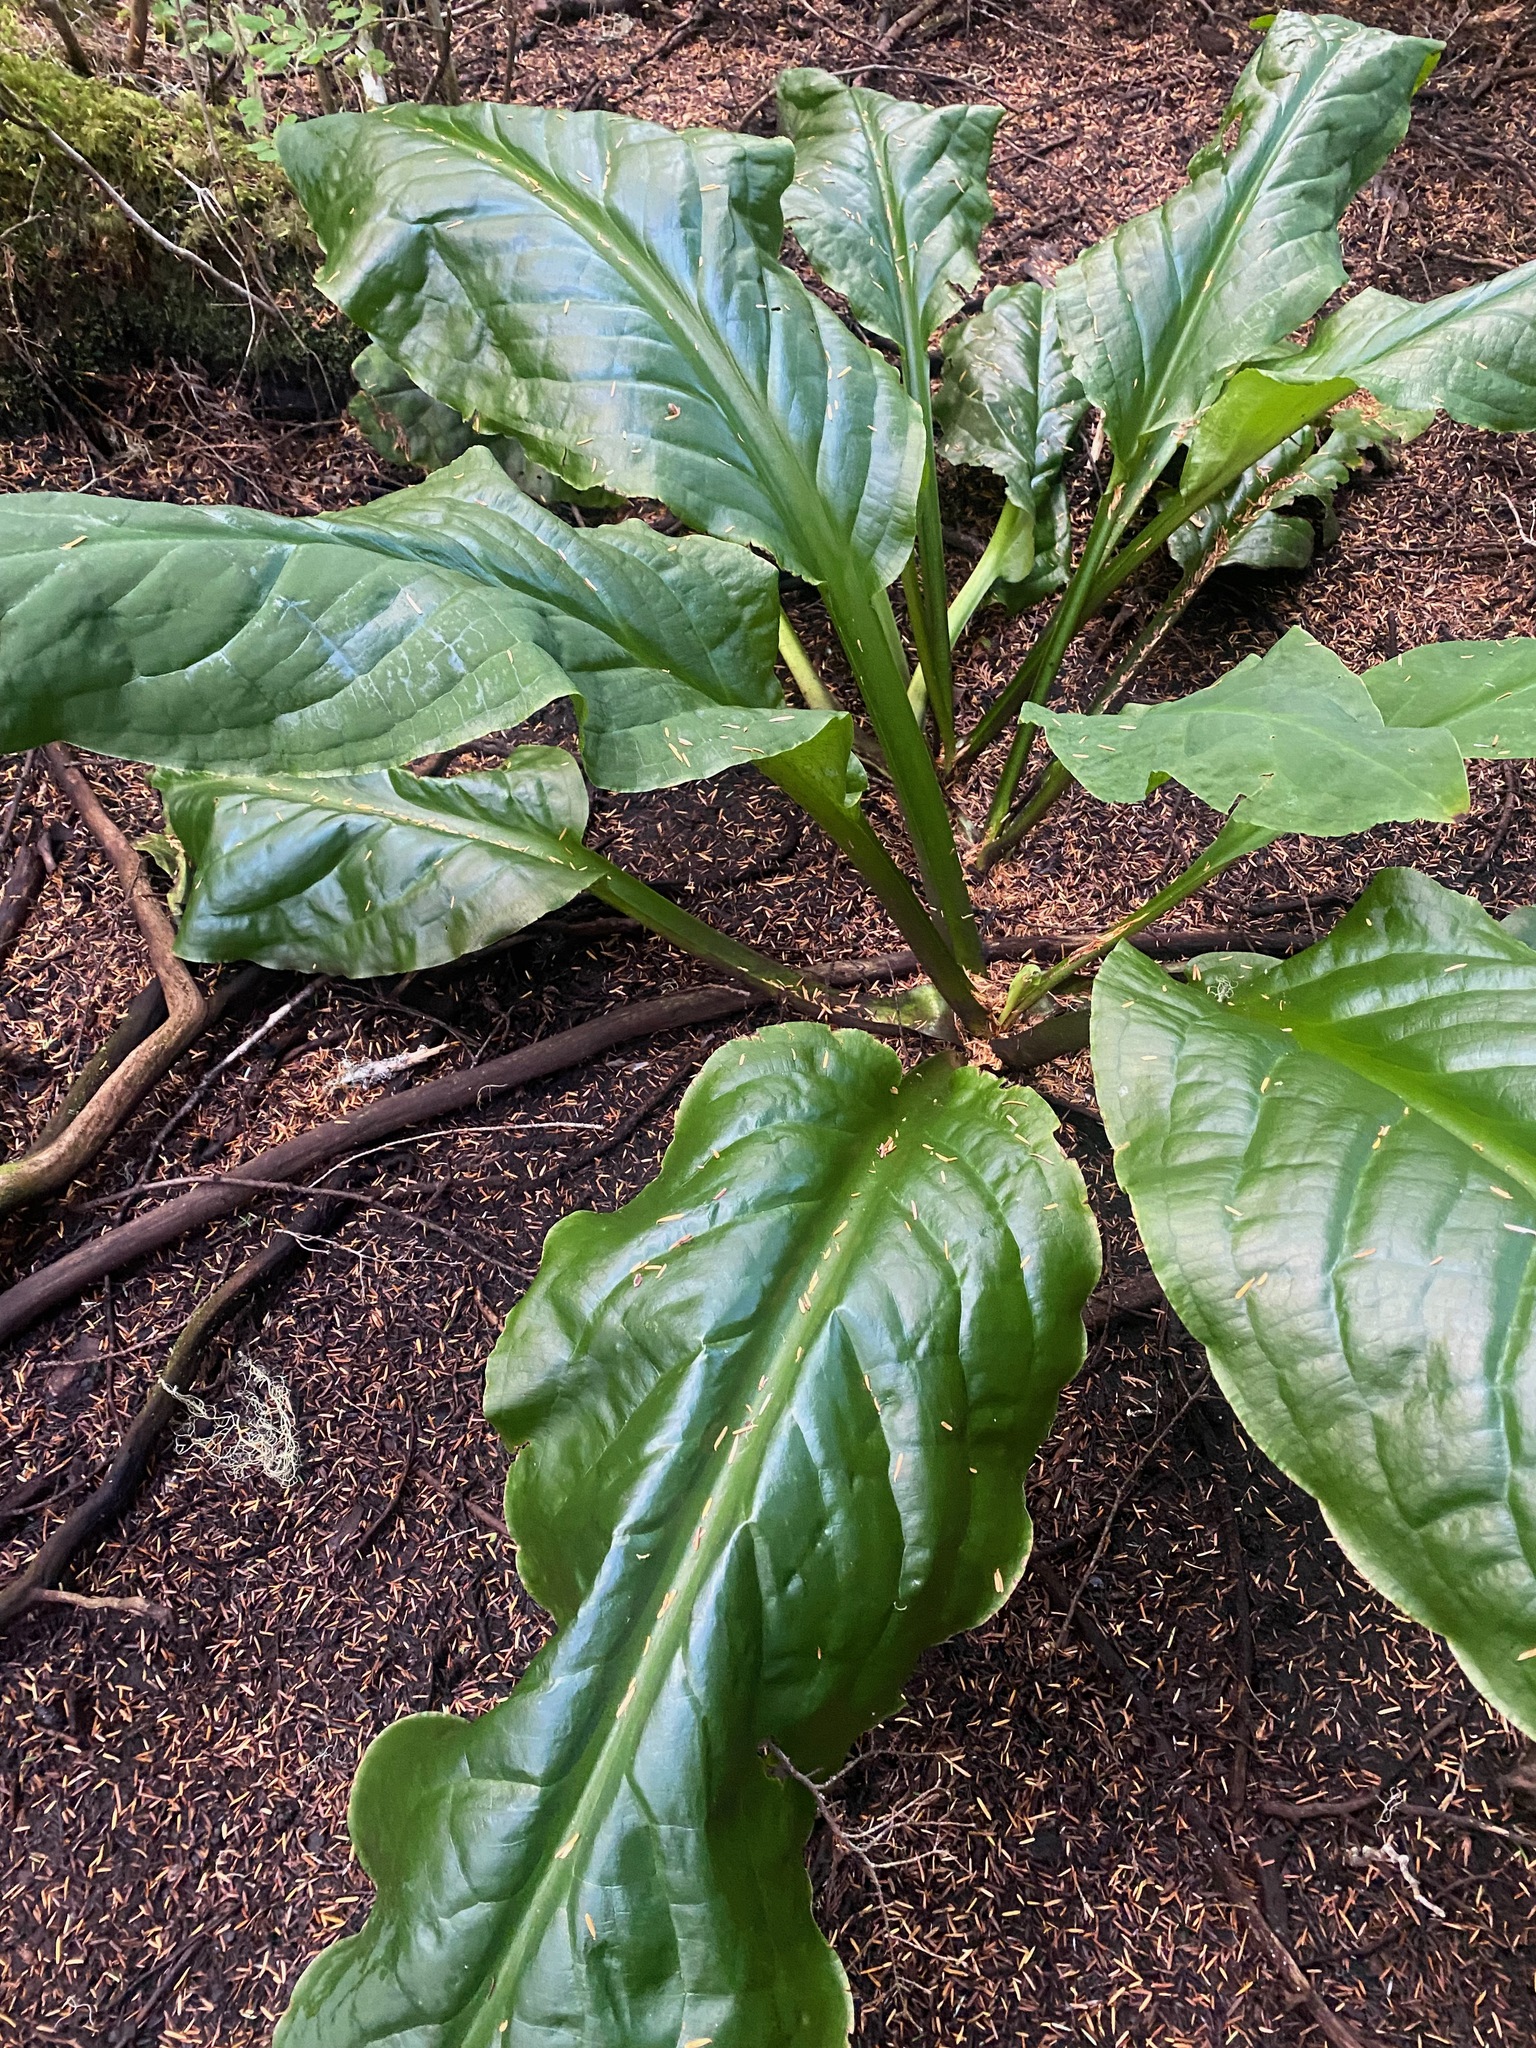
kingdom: Plantae
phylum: Tracheophyta
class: Liliopsida
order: Alismatales
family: Araceae
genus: Lysichiton
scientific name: Lysichiton americanus
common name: American skunk cabbage
